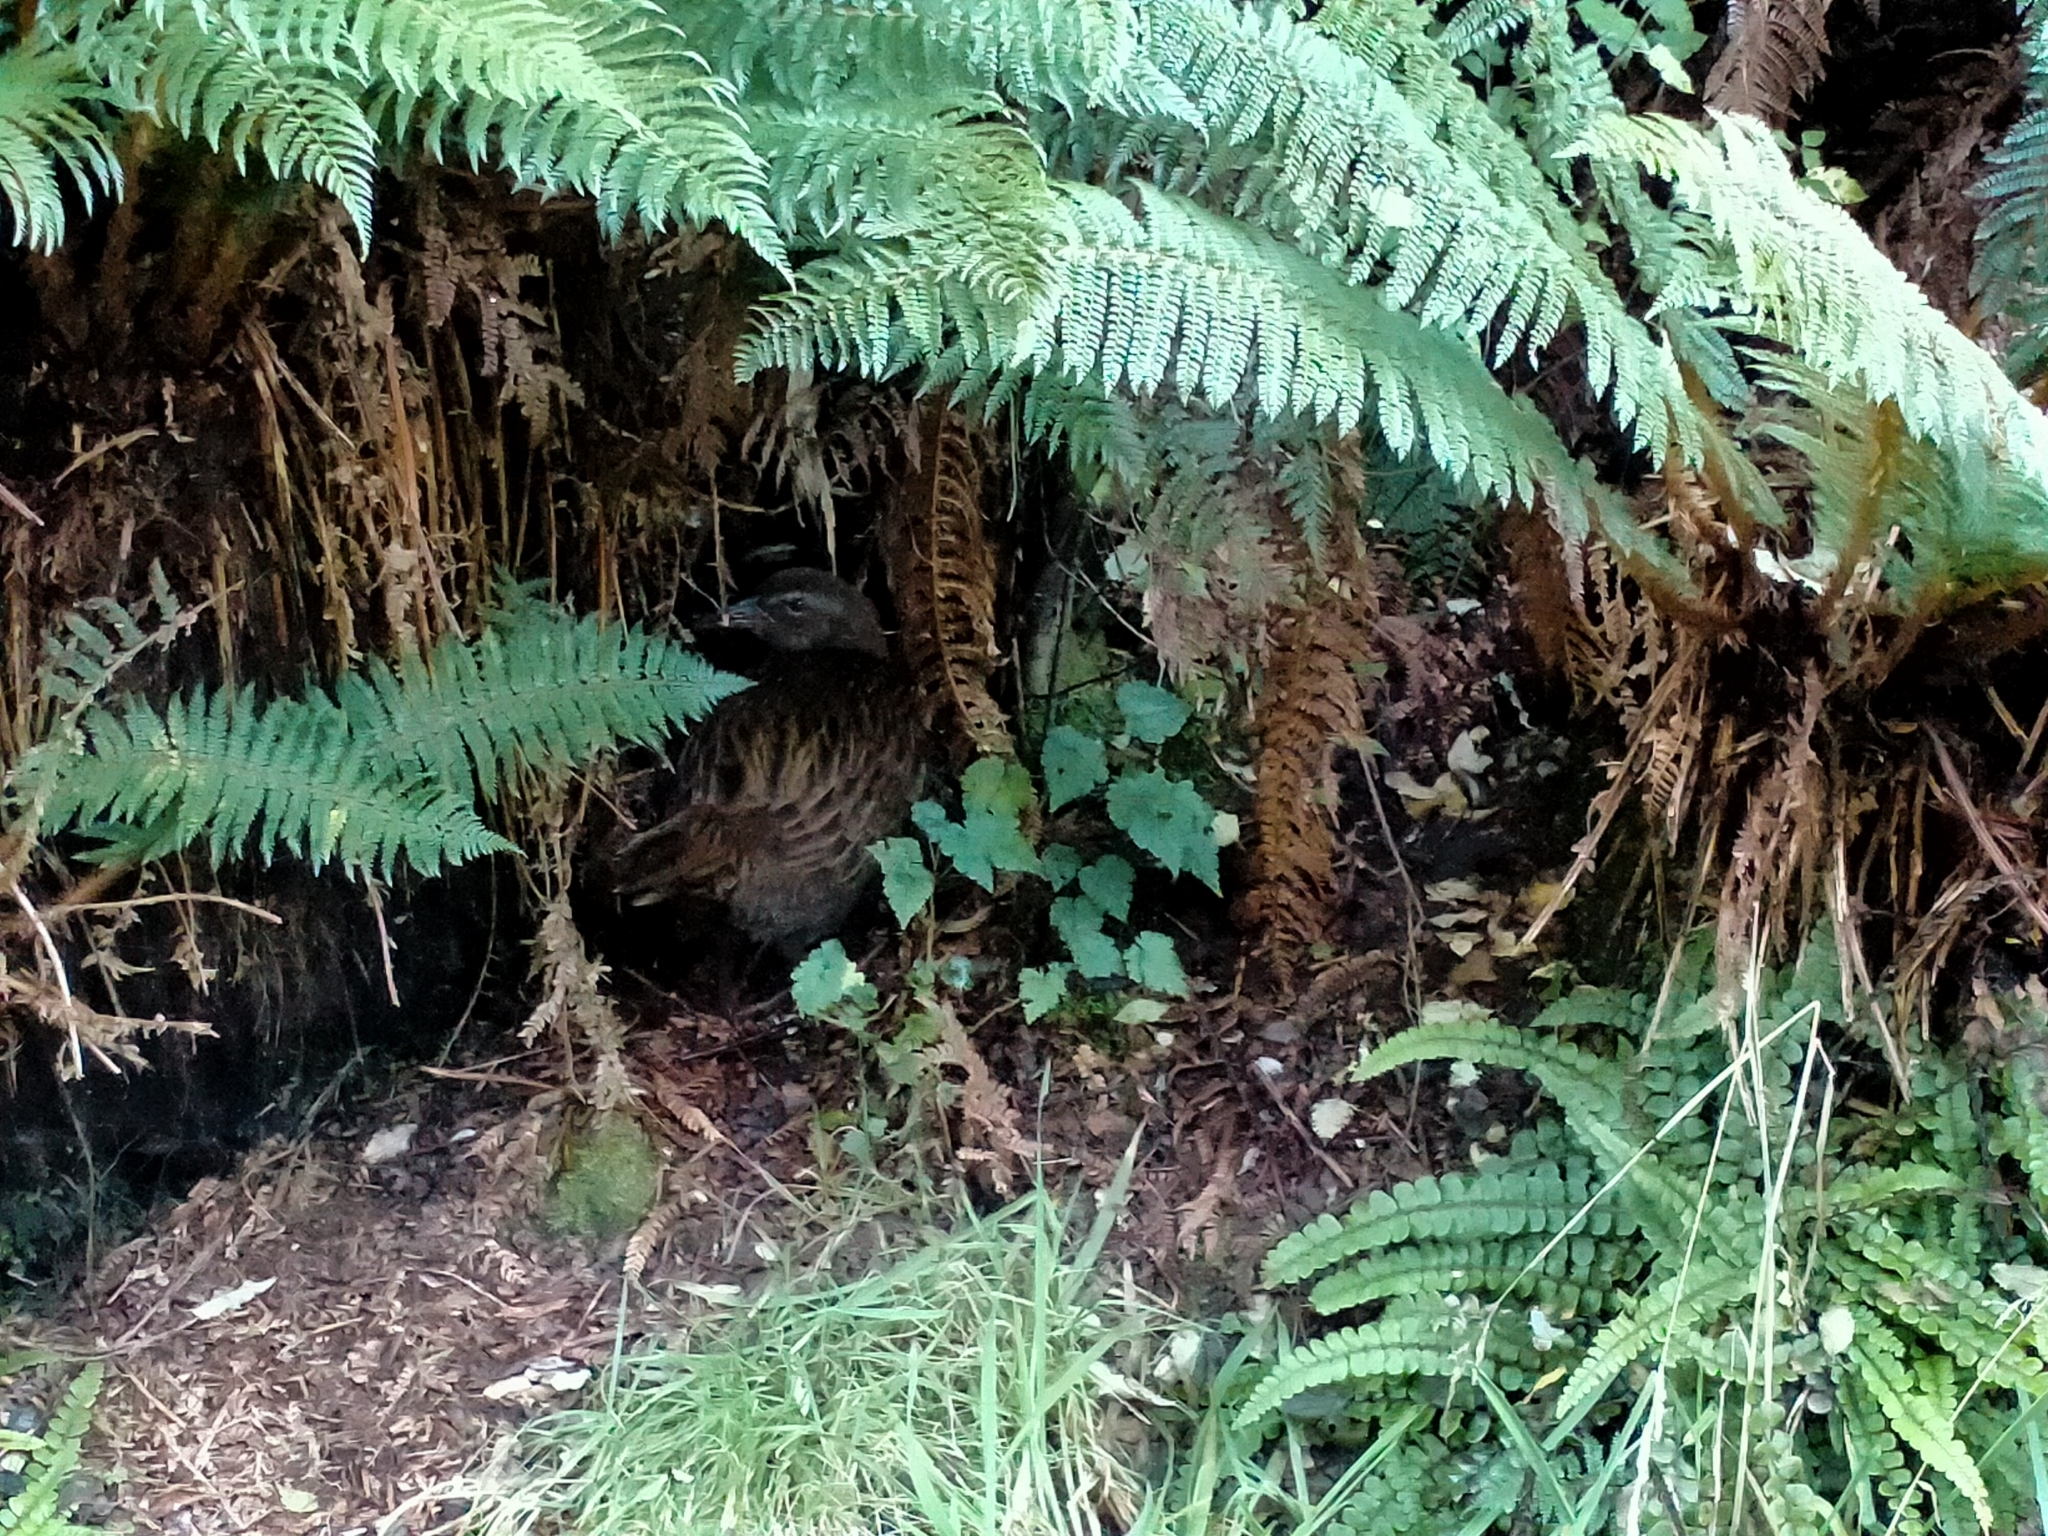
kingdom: Animalia
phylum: Chordata
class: Aves
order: Gruiformes
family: Rallidae
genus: Gallirallus
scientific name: Gallirallus australis
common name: Weka
